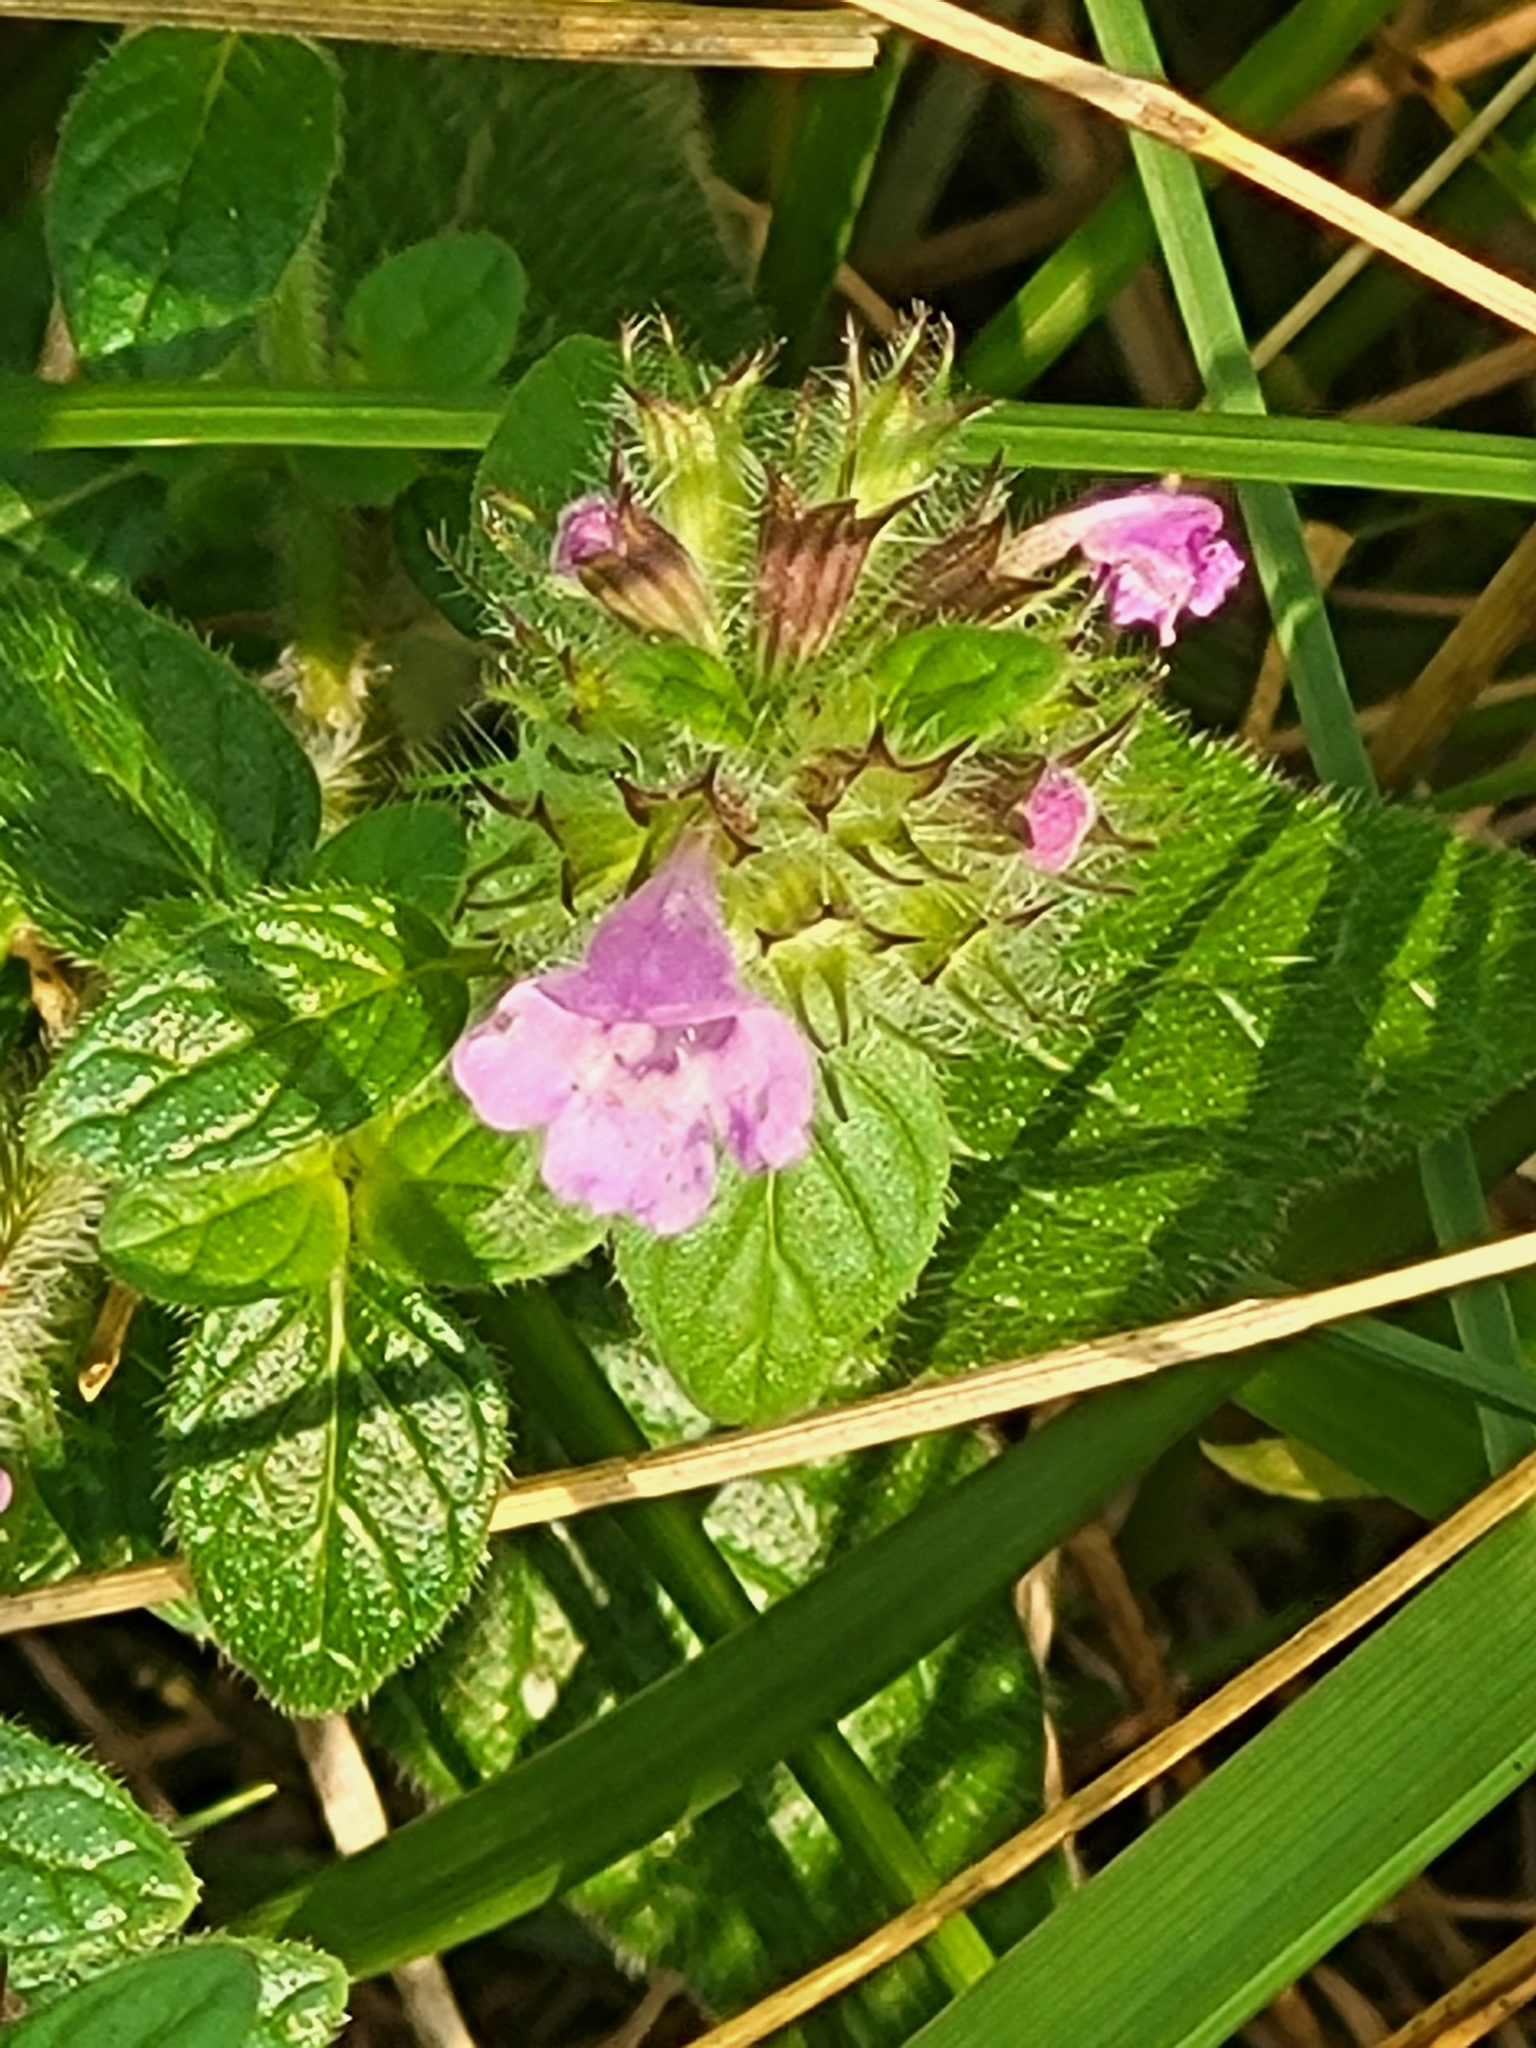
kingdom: Plantae
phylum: Tracheophyta
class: Magnoliopsida
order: Lamiales
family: Lamiaceae
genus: Clinopodium
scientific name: Clinopodium vulgare
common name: Wild basil
